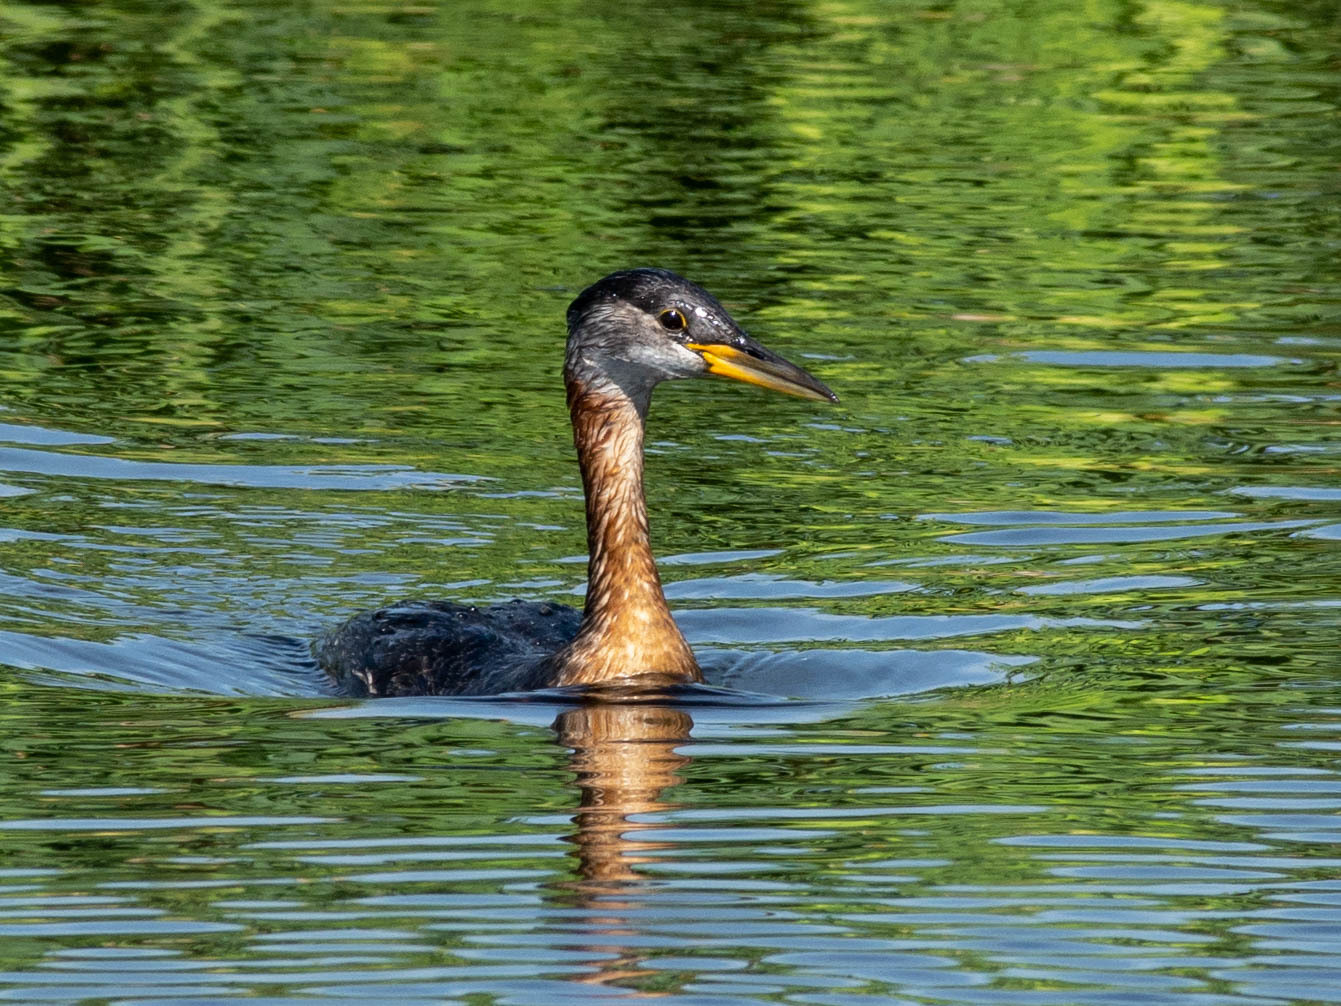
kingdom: Animalia
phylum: Chordata
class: Aves
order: Podicipediformes
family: Podicipedidae
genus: Podiceps
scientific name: Podiceps grisegena
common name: Red-necked grebe
